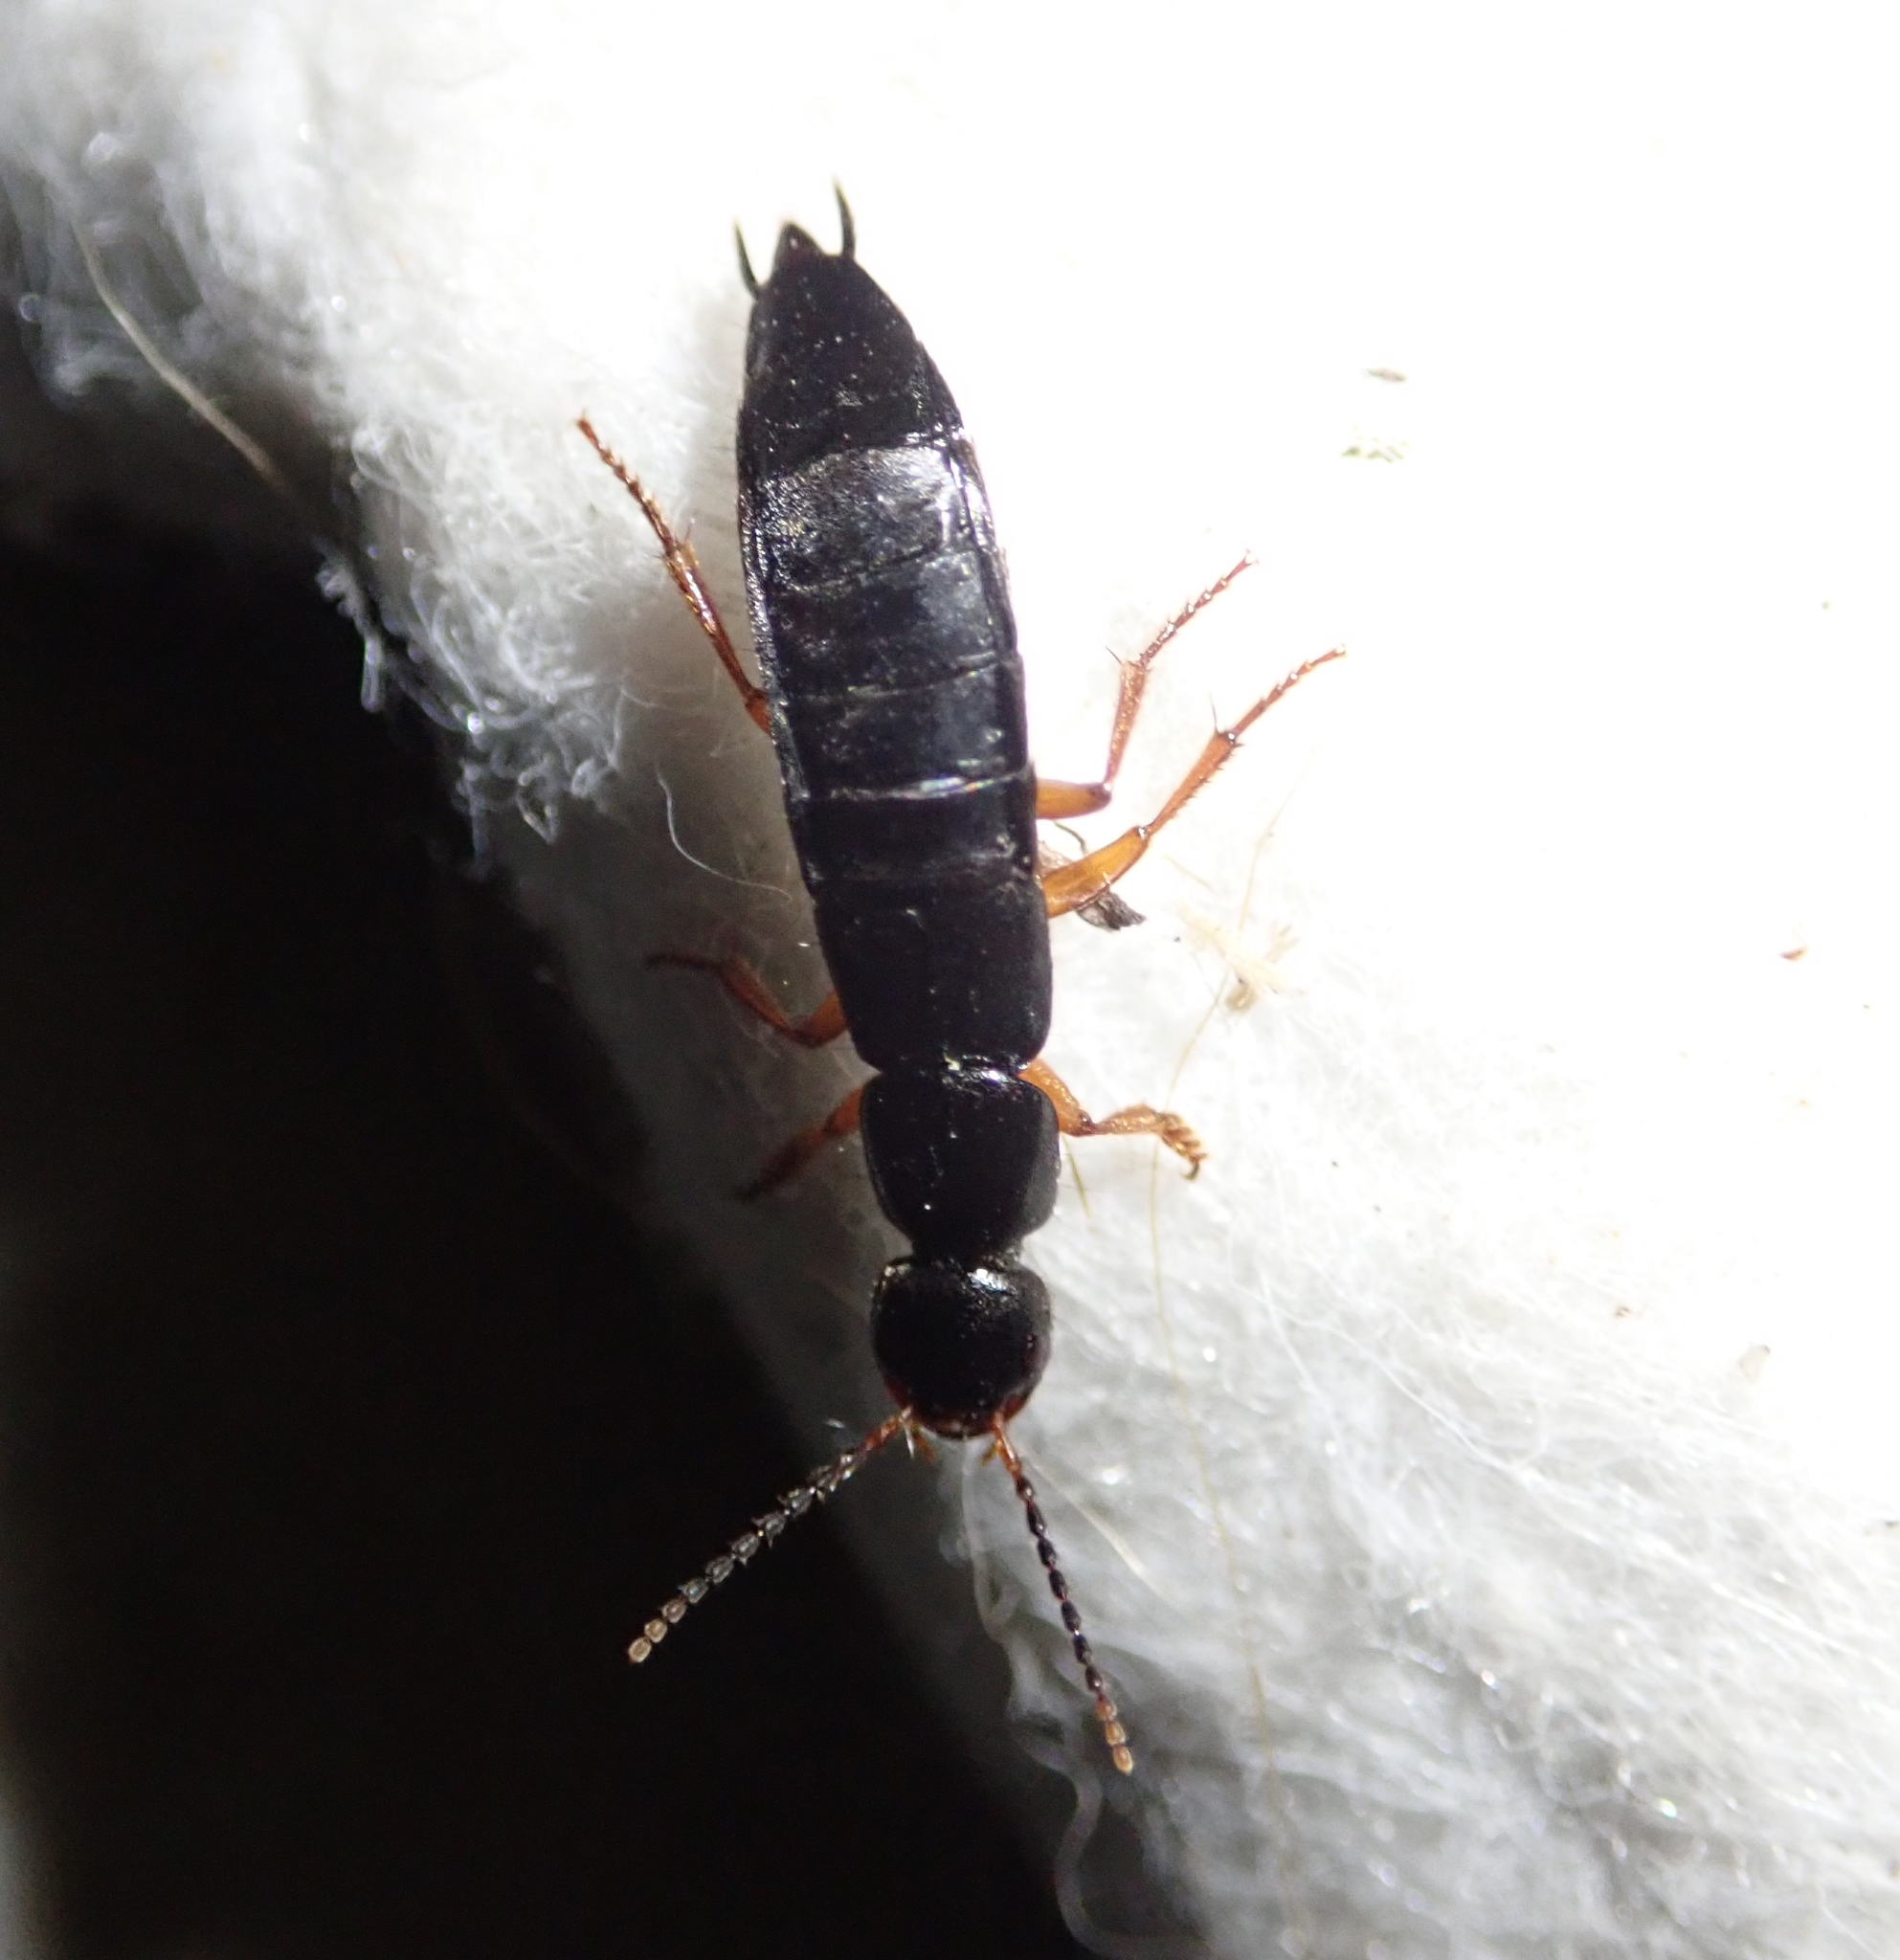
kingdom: Animalia
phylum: Arthropoda
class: Insecta
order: Coleoptera
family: Staphylinidae
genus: Ocypus
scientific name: Ocypus brunnipes
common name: Rove beetle
